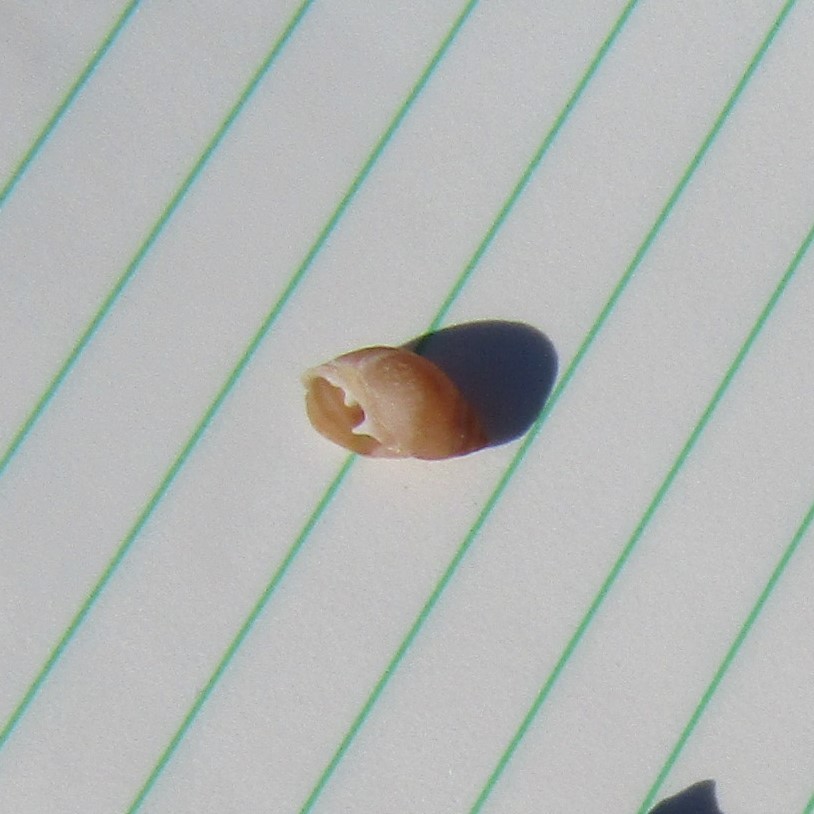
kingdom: Animalia
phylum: Mollusca
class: Gastropoda
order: Ellobiida
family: Ellobiidae
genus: Marinula
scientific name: Marinula filholi
